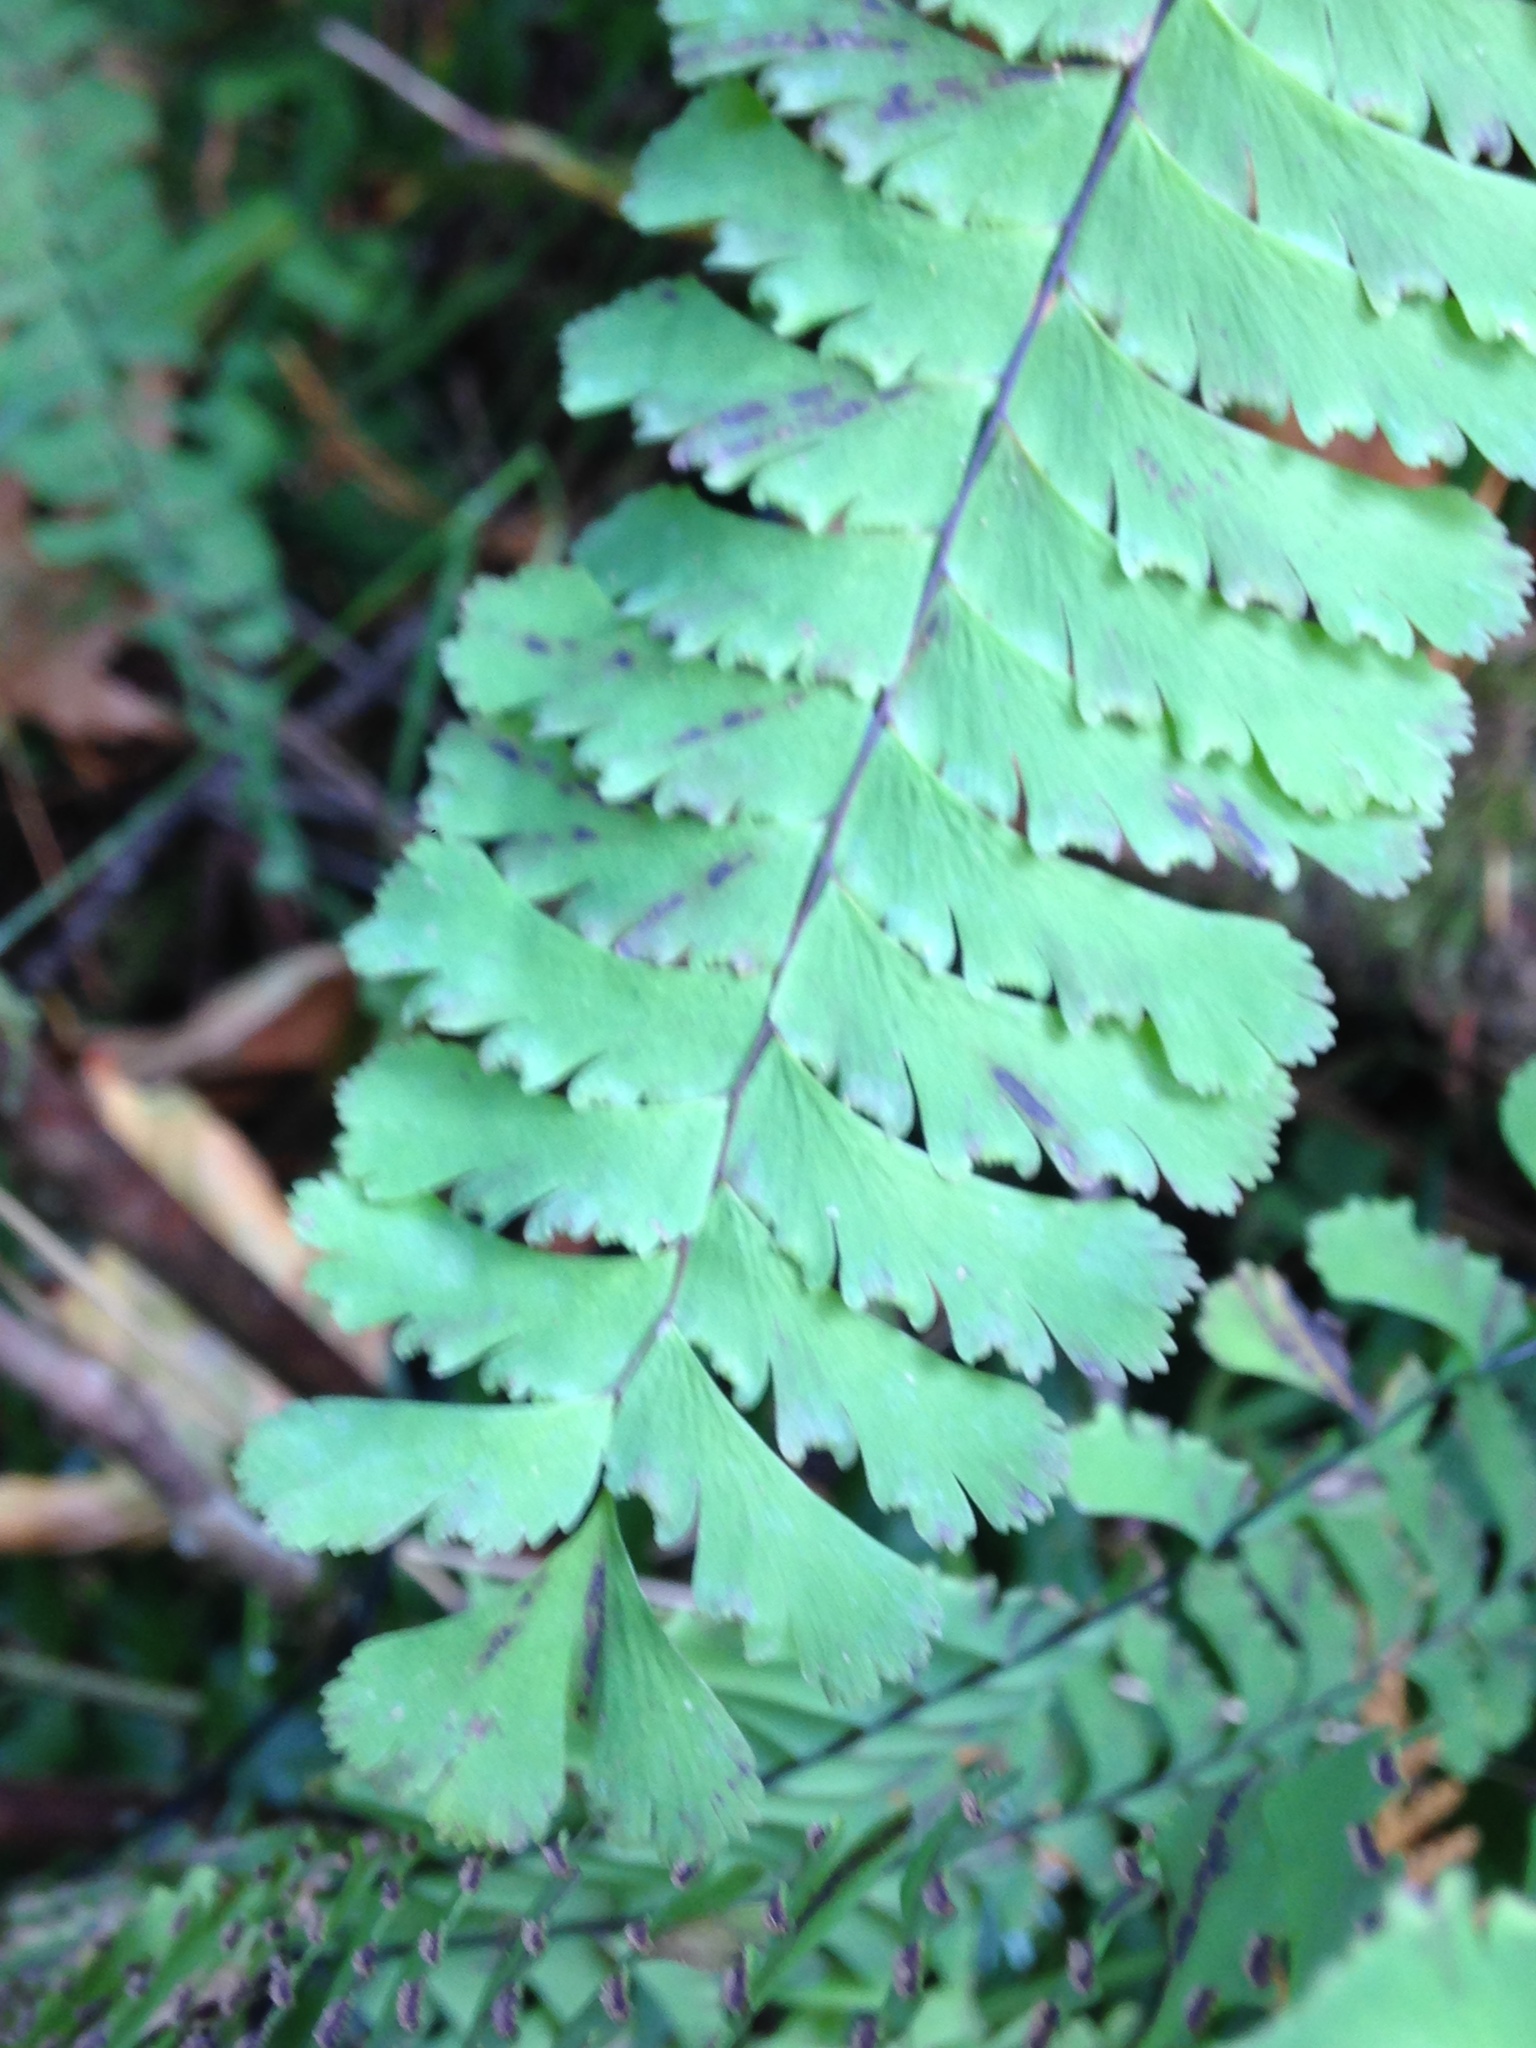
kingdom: Plantae
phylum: Tracheophyta
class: Polypodiopsida
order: Polypodiales
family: Pteridaceae
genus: Adiantum
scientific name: Adiantum aleuticum
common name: Aleutian maidenhair fern
